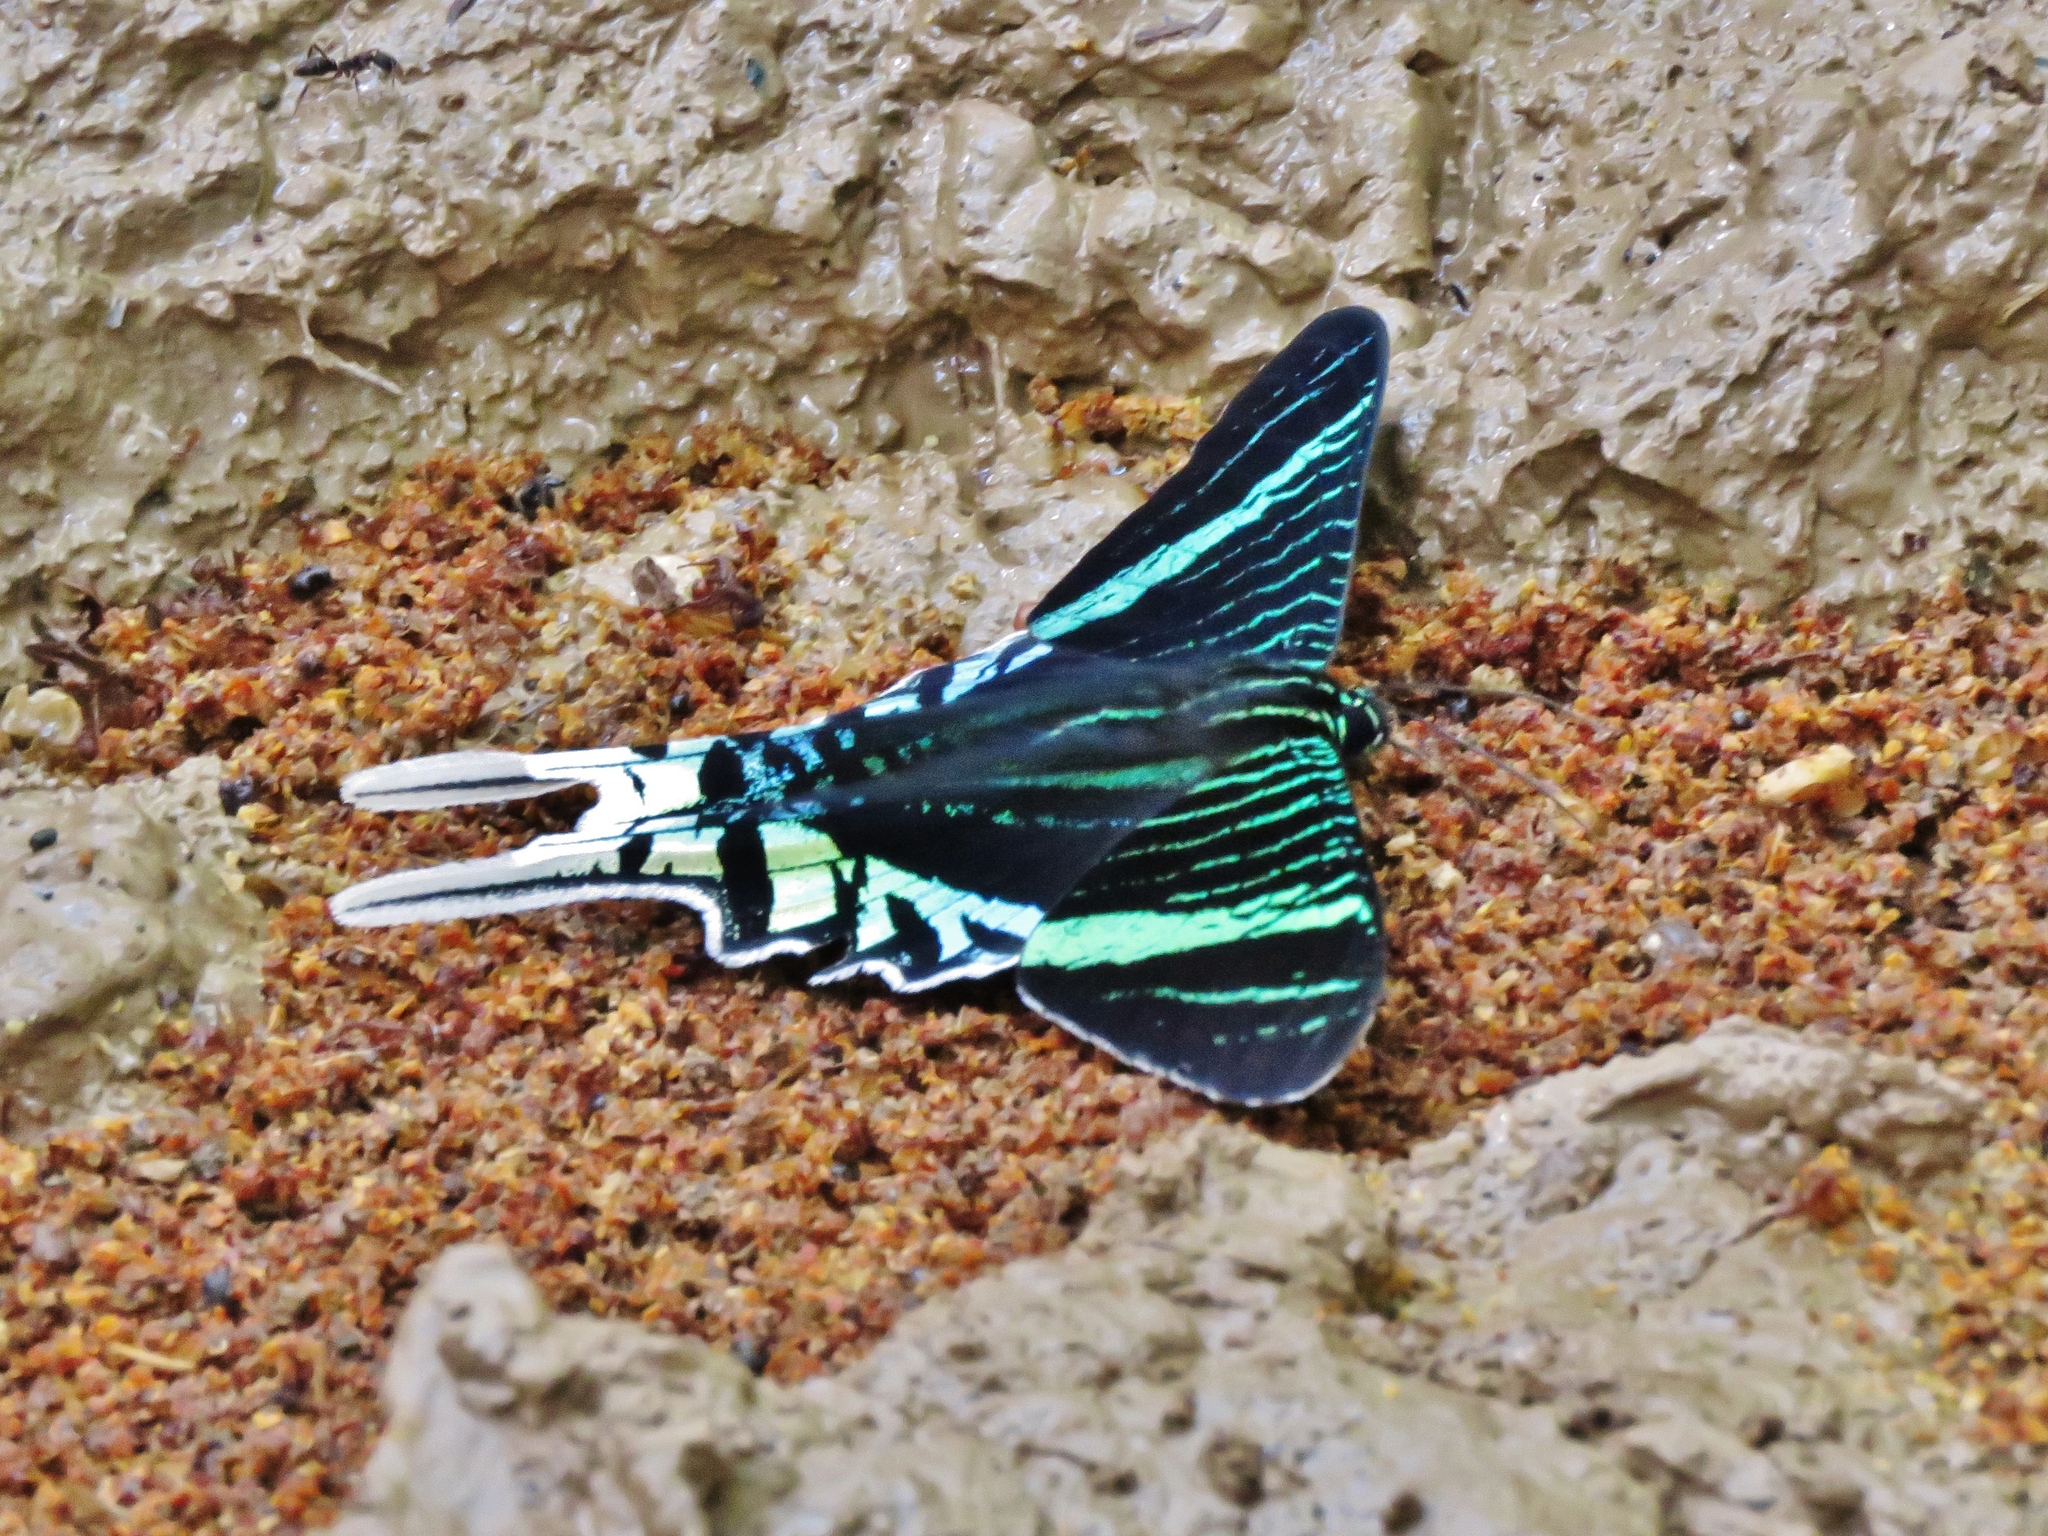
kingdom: Animalia
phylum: Arthropoda
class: Insecta
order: Lepidoptera
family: Uraniidae
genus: Urania
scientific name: Urania leilus
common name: Peacock moth
